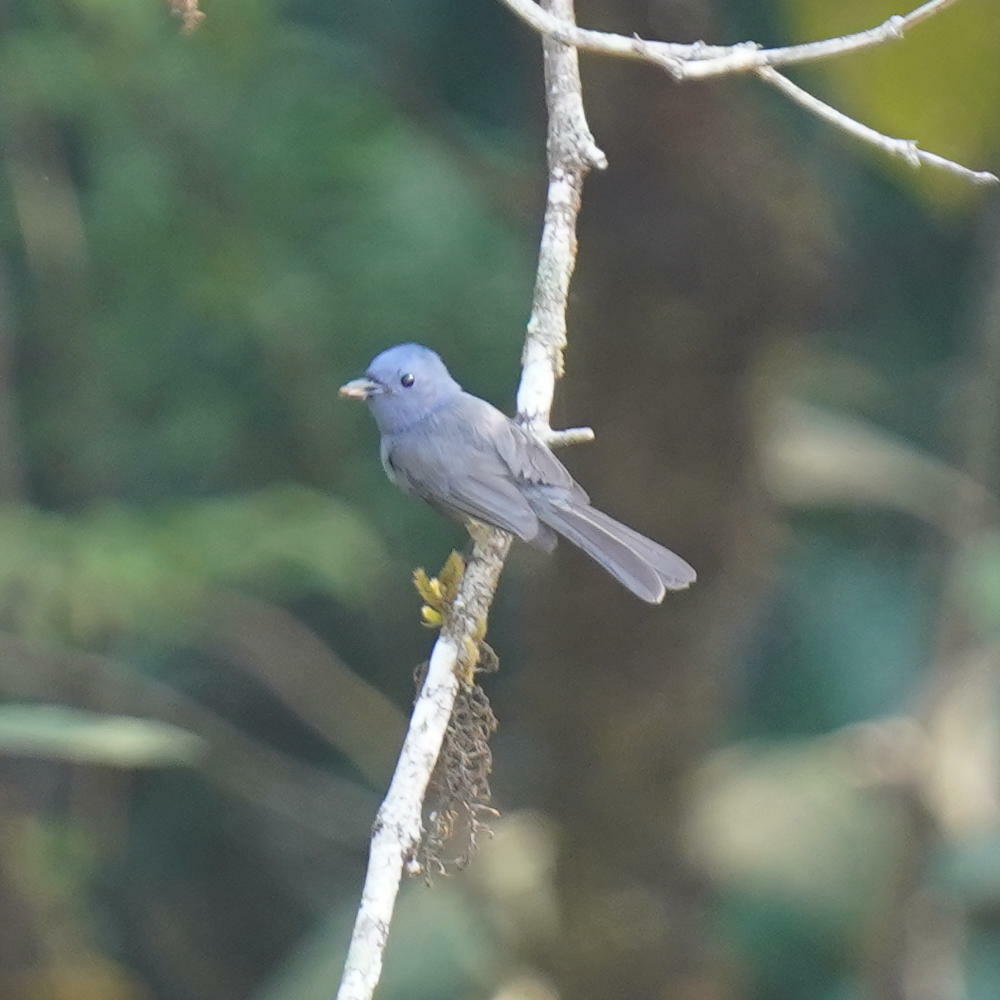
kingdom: Animalia
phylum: Chordata
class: Aves
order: Passeriformes
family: Monarchidae
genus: Hypothymis
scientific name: Hypothymis azurea
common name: Black-naped monarch
